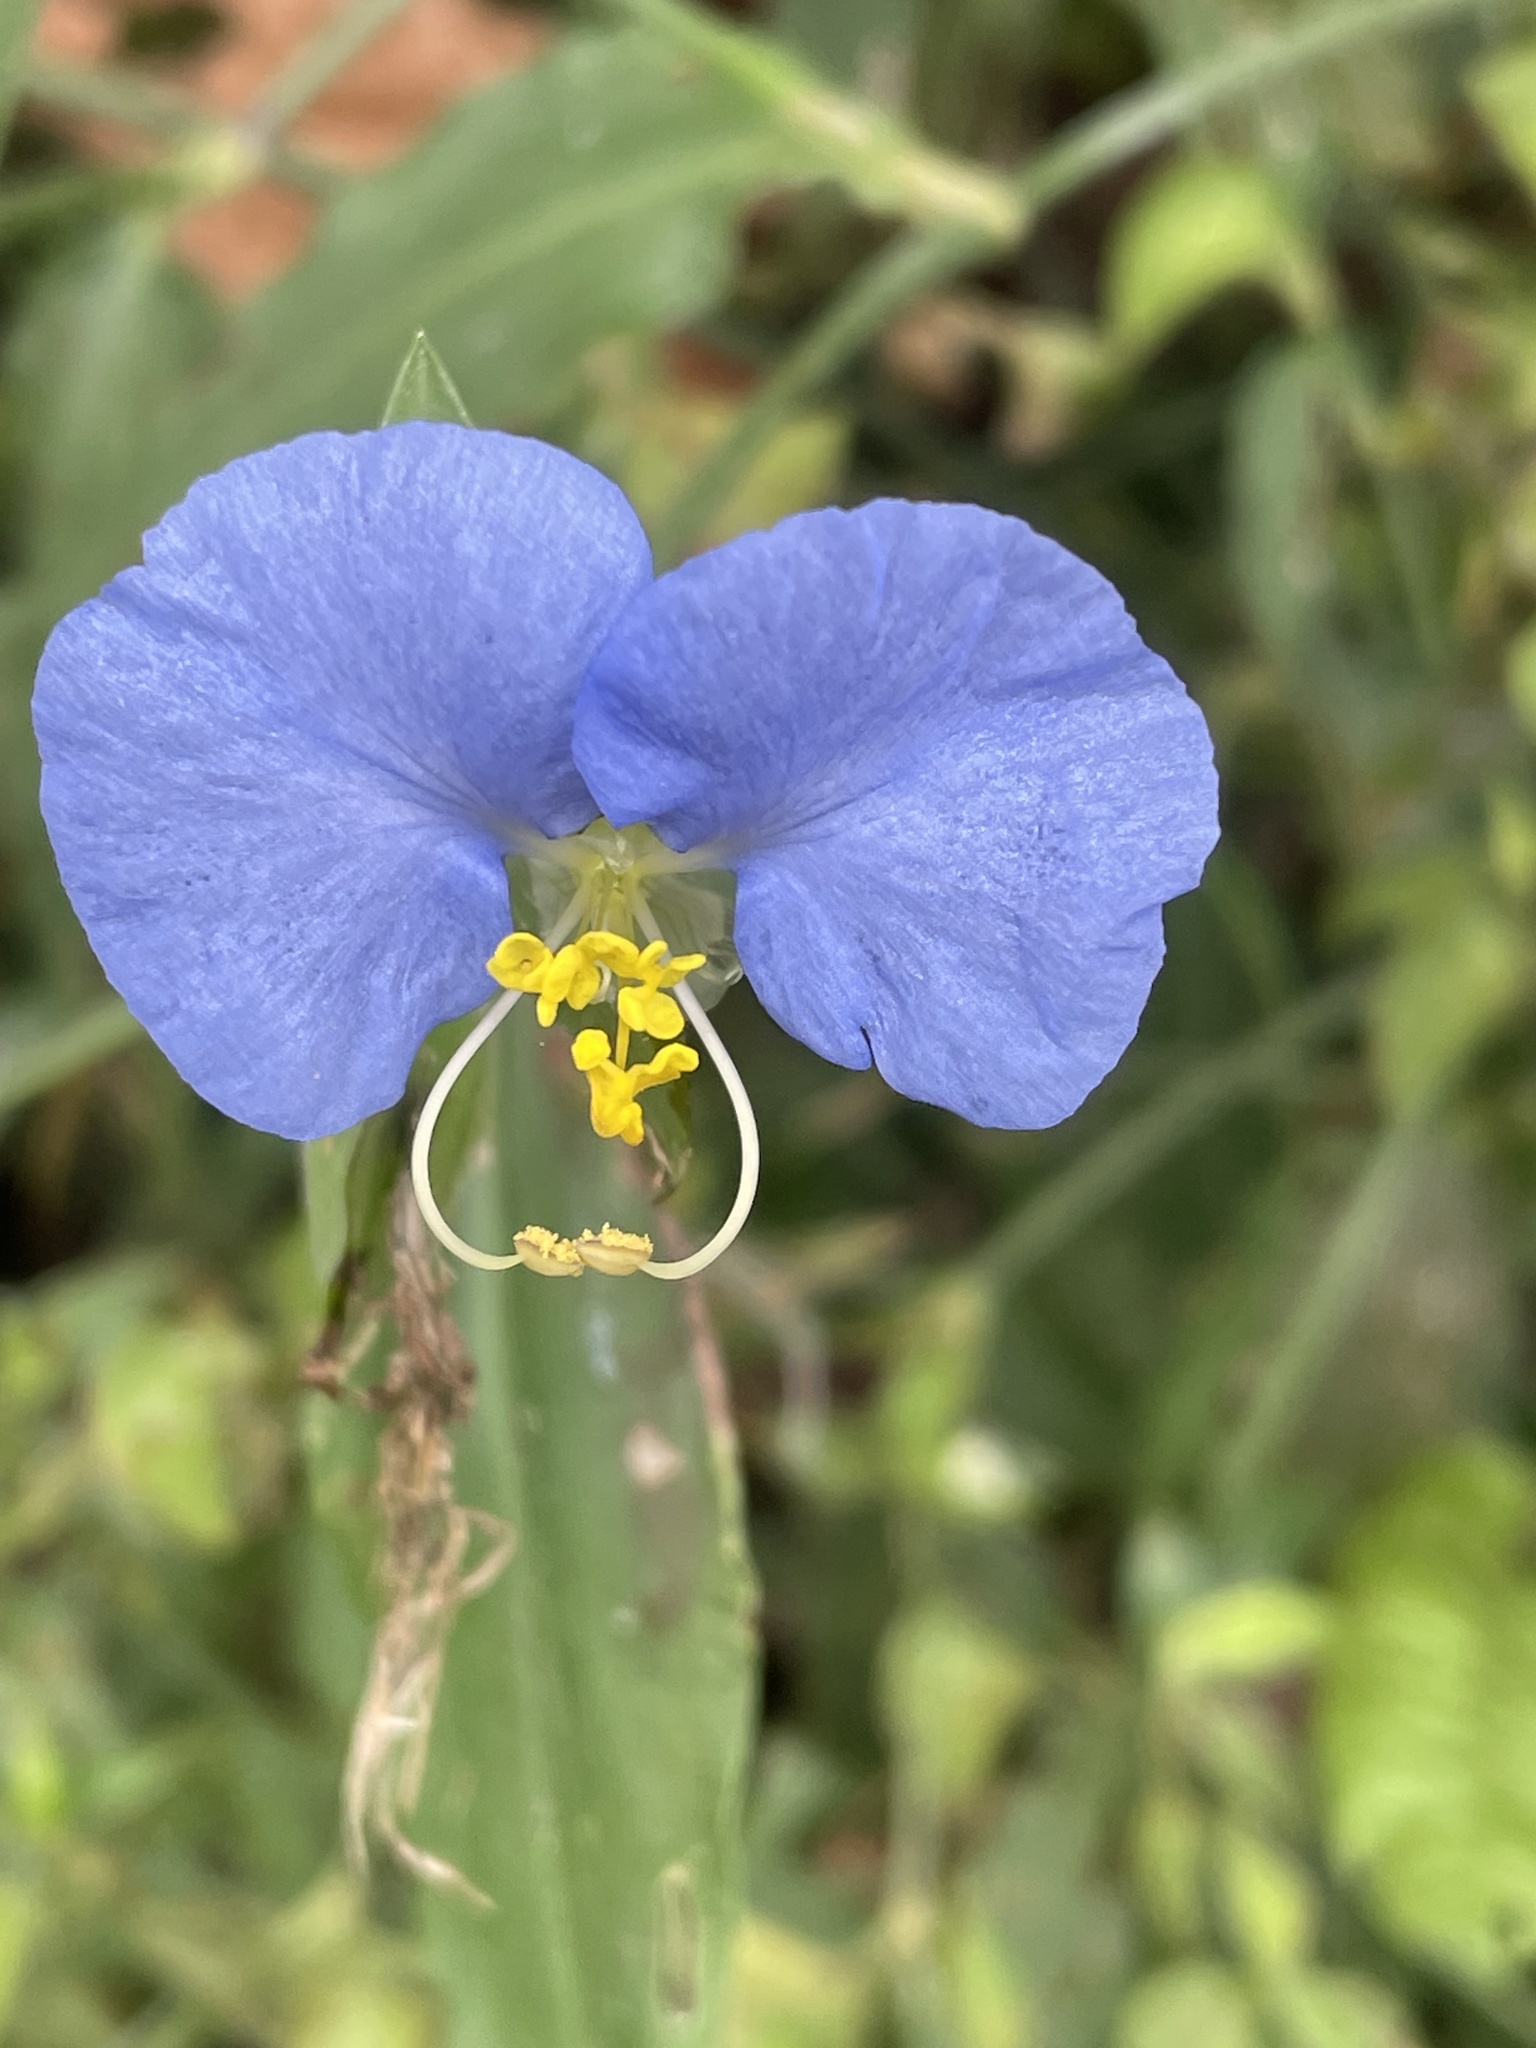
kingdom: Plantae
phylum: Tracheophyta
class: Liliopsida
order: Commelinales
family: Commelinaceae
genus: Commelina
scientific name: Commelina erecta
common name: Blousel blommetjie
